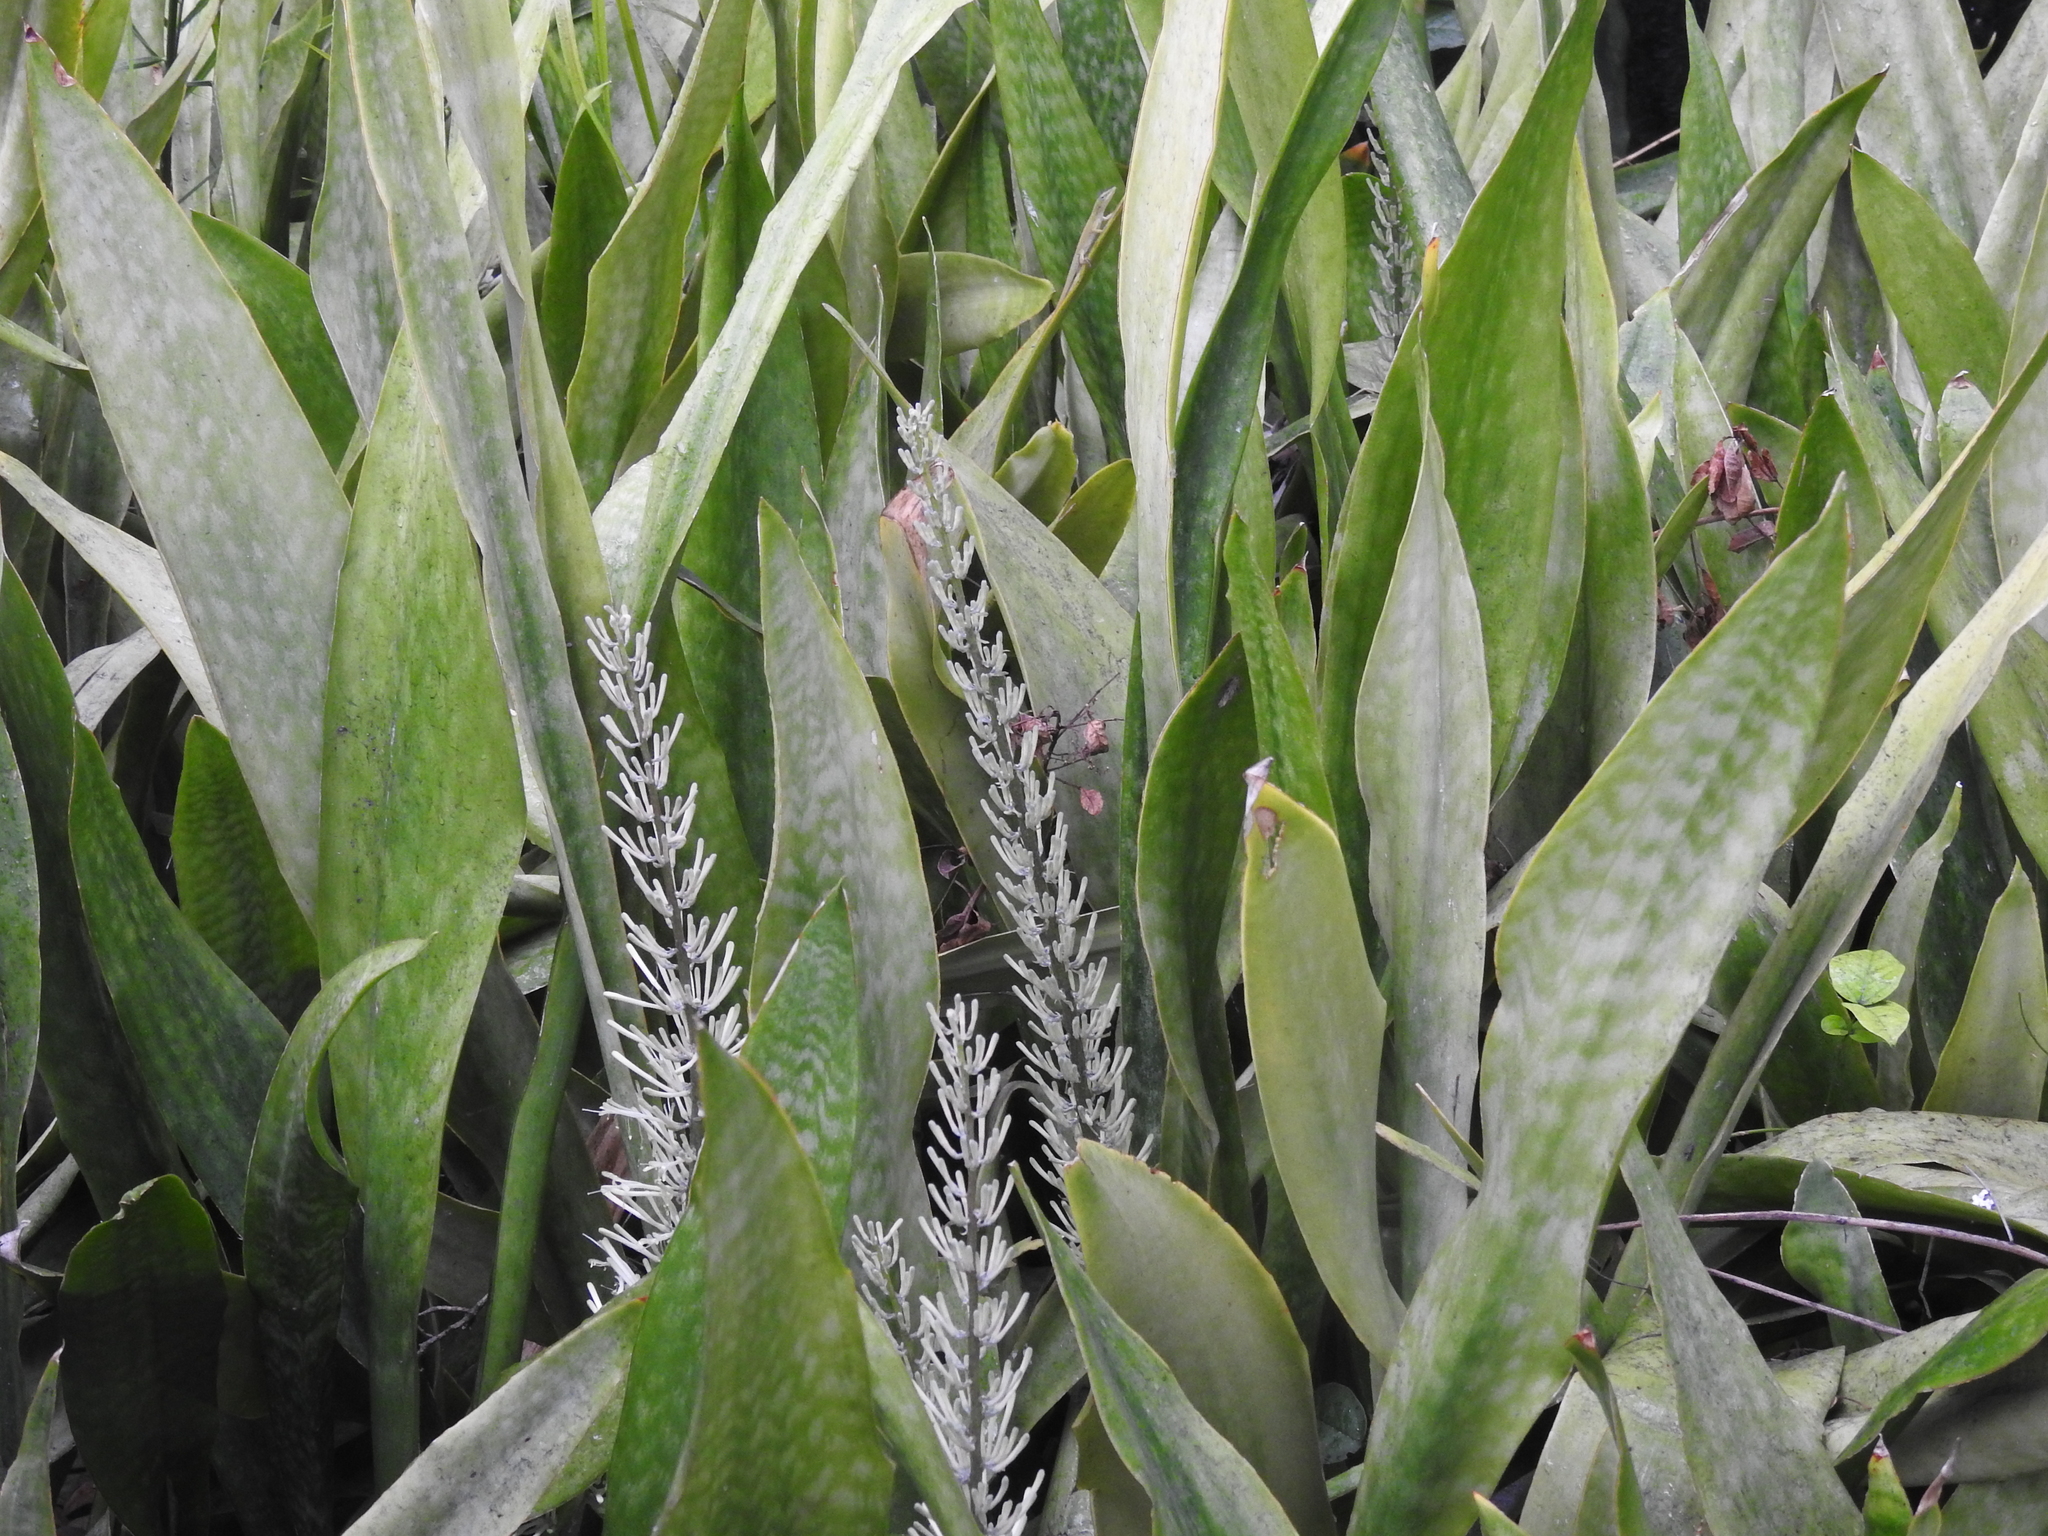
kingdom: Plantae
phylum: Tracheophyta
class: Liliopsida
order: Asparagales
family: Asparagaceae
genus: Dracaena
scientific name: Dracaena hyacinthoides
